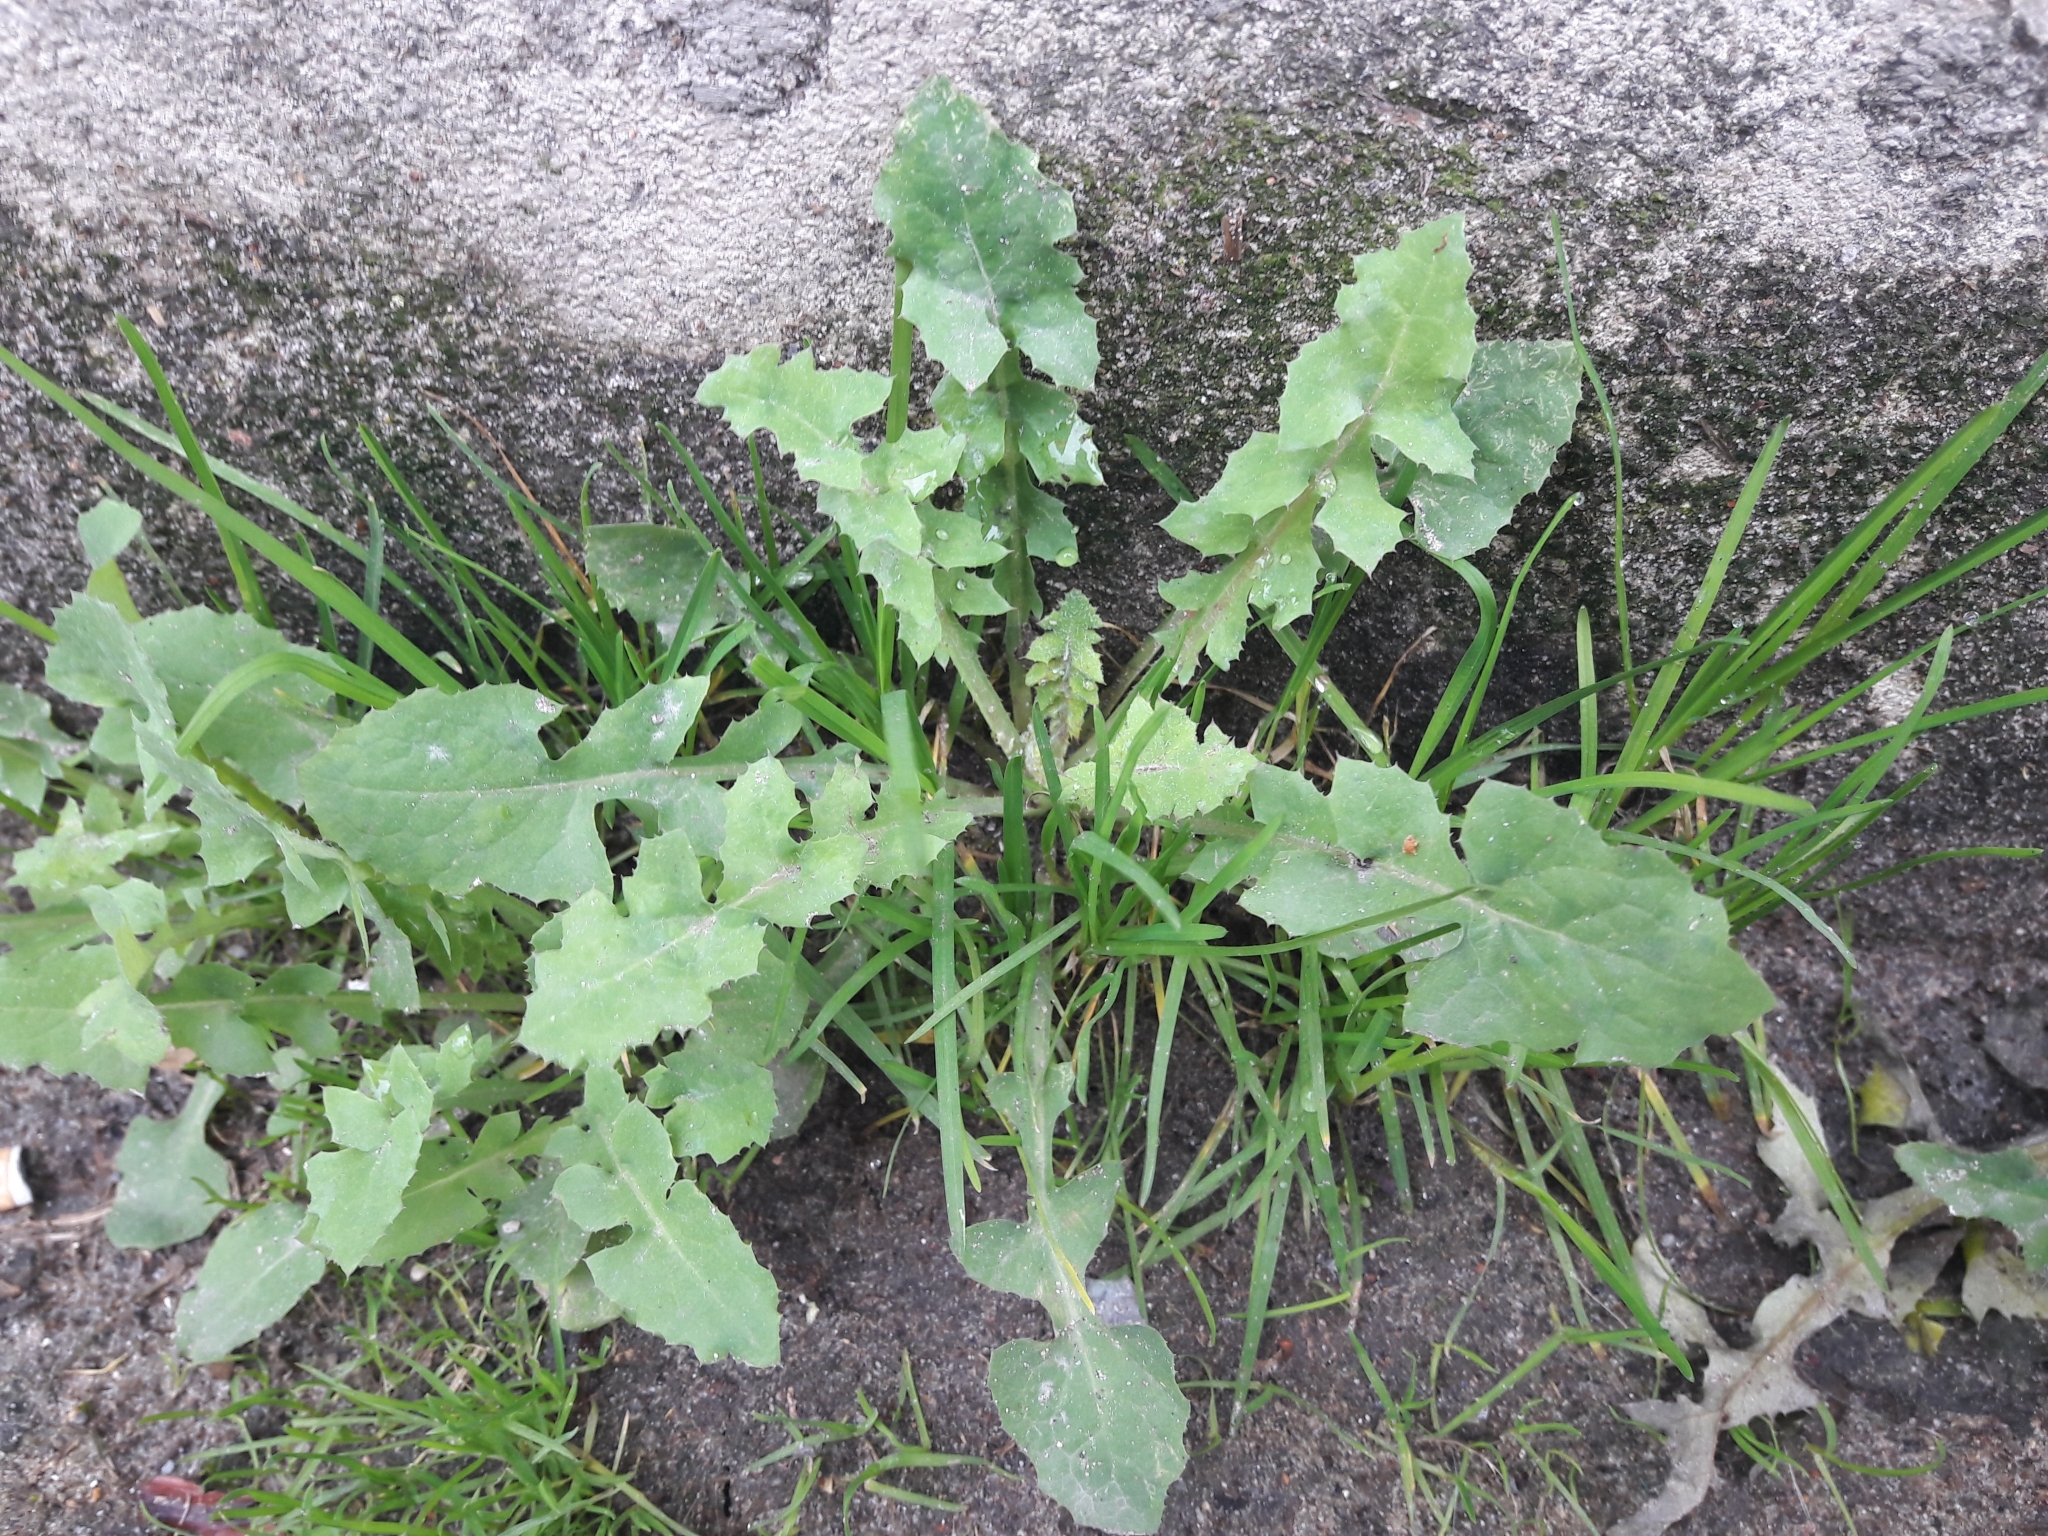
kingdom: Plantae
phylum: Tracheophyta
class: Magnoliopsida
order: Asterales
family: Asteraceae
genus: Sonchus
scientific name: Sonchus oleraceus
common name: Common sowthistle
